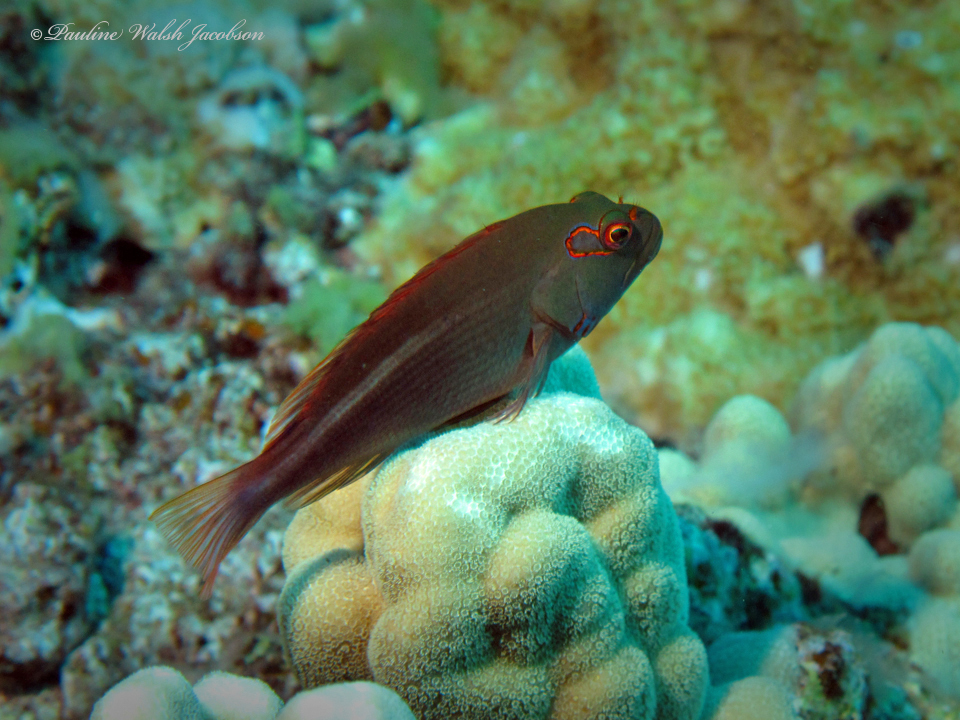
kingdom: Animalia
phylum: Chordata
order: Perciformes
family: Cirrhitidae
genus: Paracirrhites
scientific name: Paracirrhites arcatus
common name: Arc-eye hawkfish
